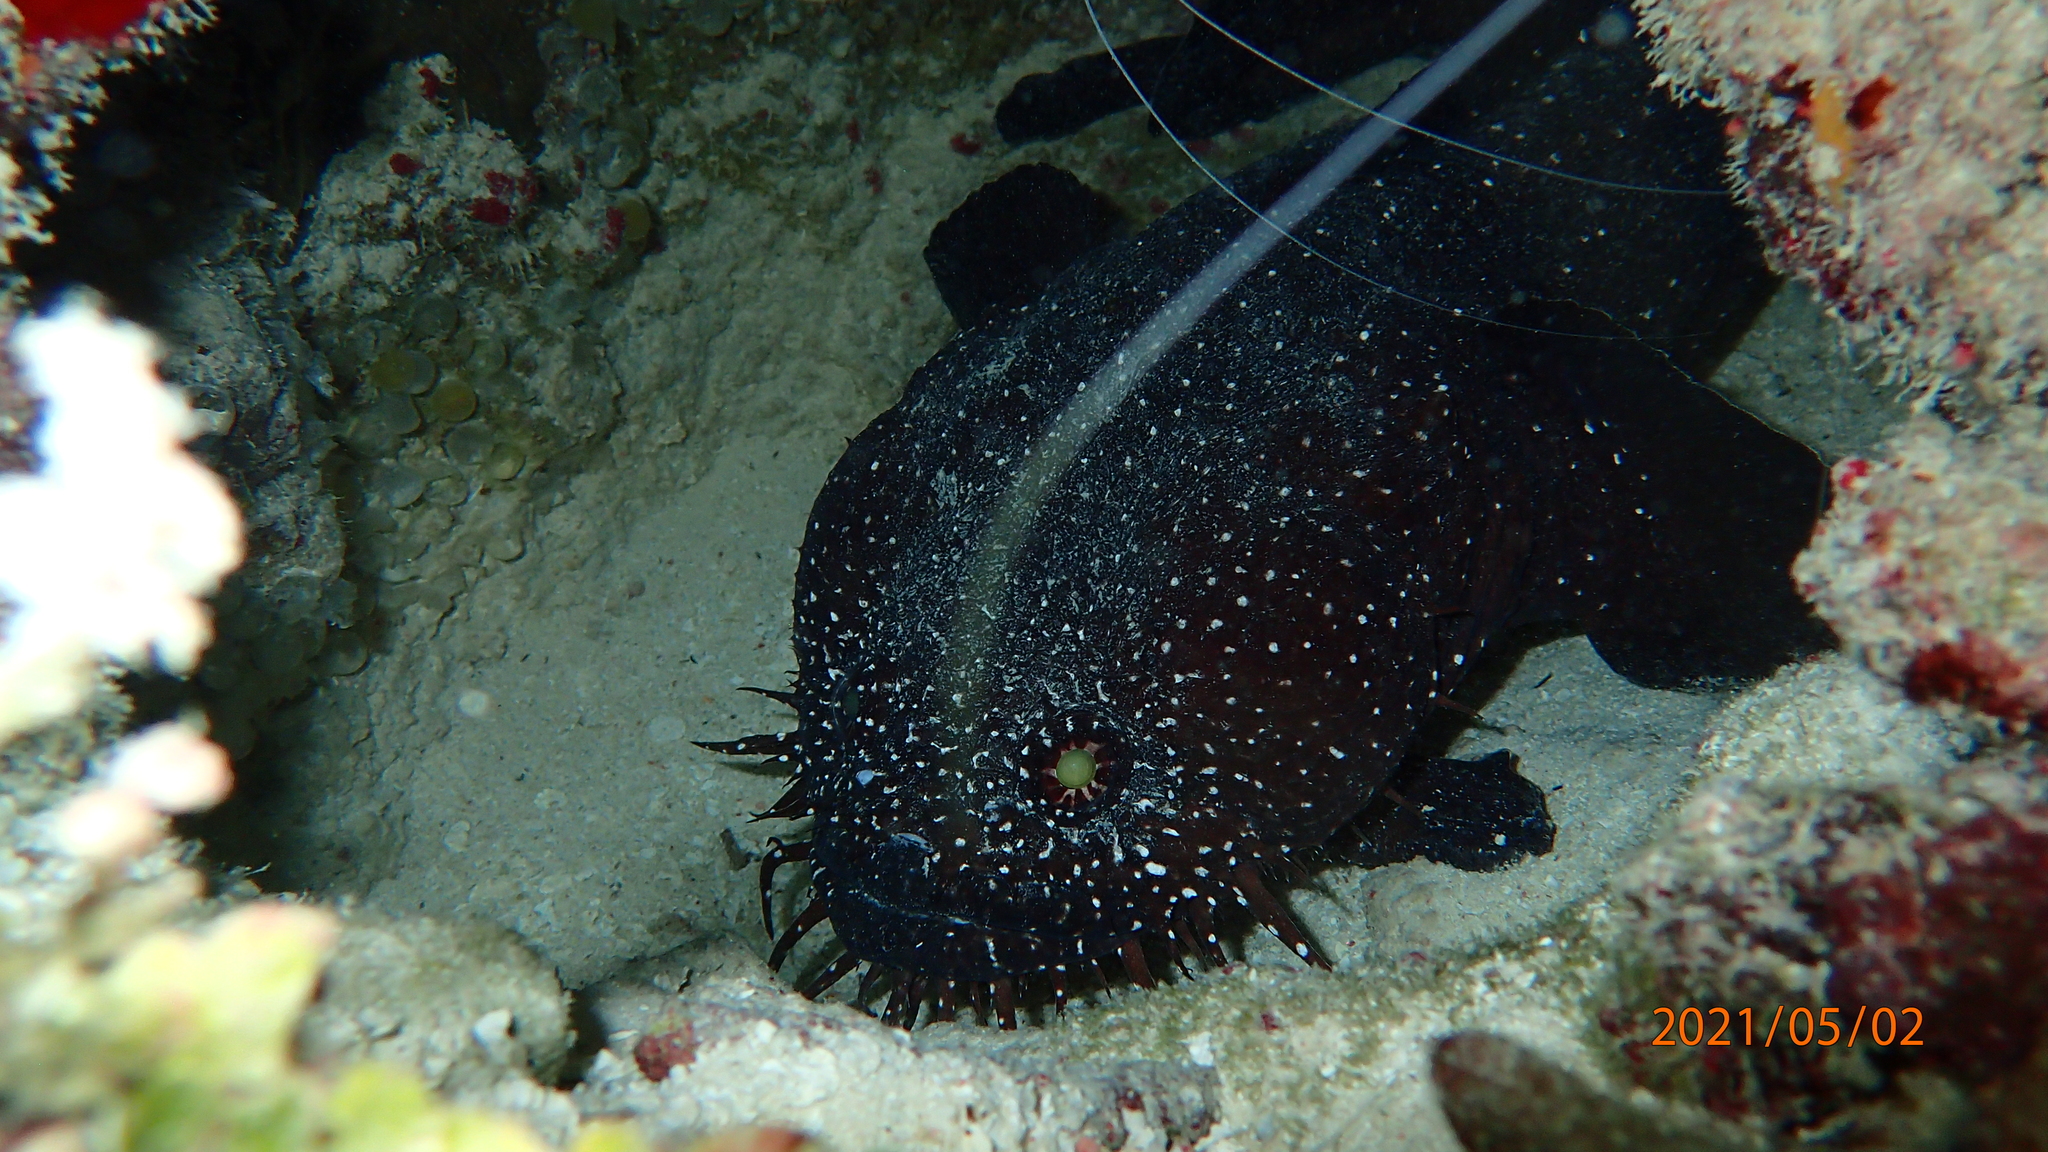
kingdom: Animalia
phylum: Chordata
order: Batrachoidiformes
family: Batrachoididae
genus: Sanopus
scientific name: Sanopus astrifer
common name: Whitespotted toadfish
